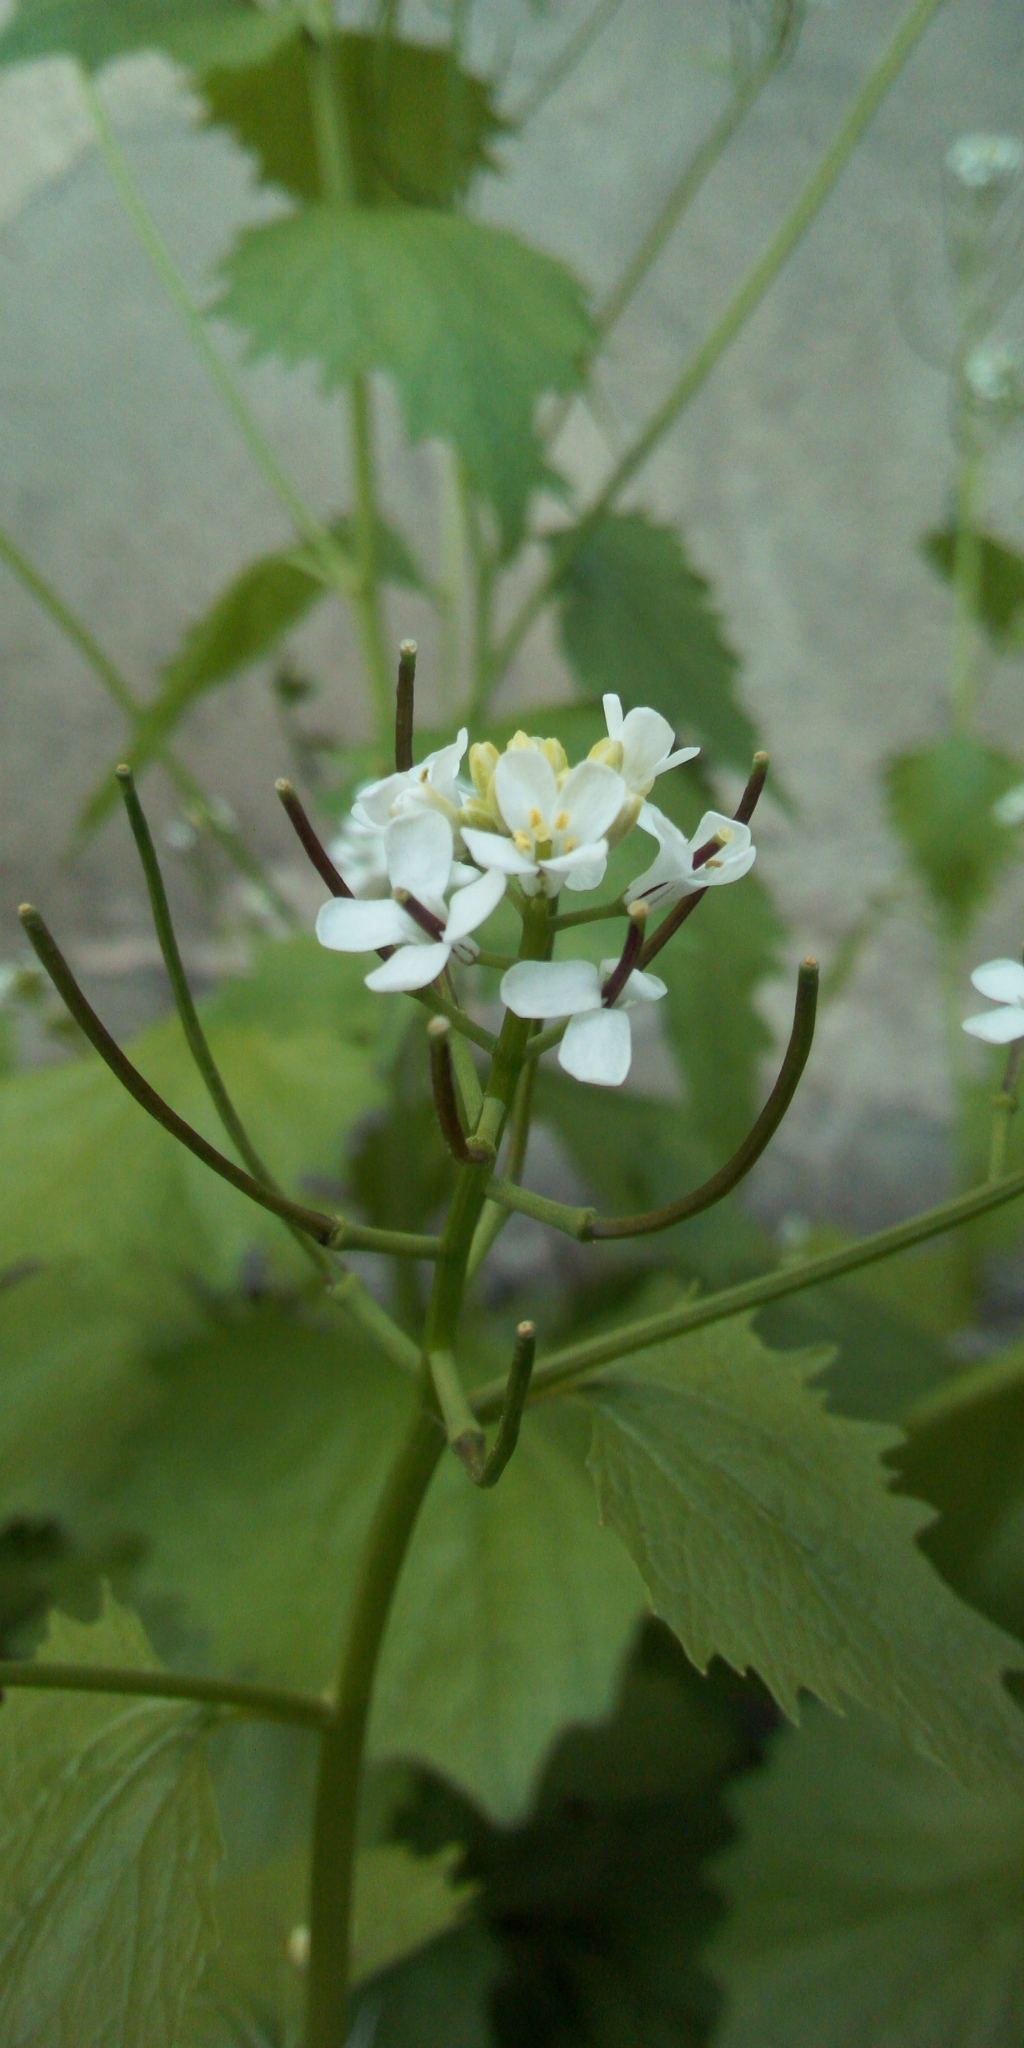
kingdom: Plantae
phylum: Tracheophyta
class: Magnoliopsida
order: Brassicales
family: Brassicaceae
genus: Alliaria
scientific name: Alliaria petiolata
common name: Garlic mustard
